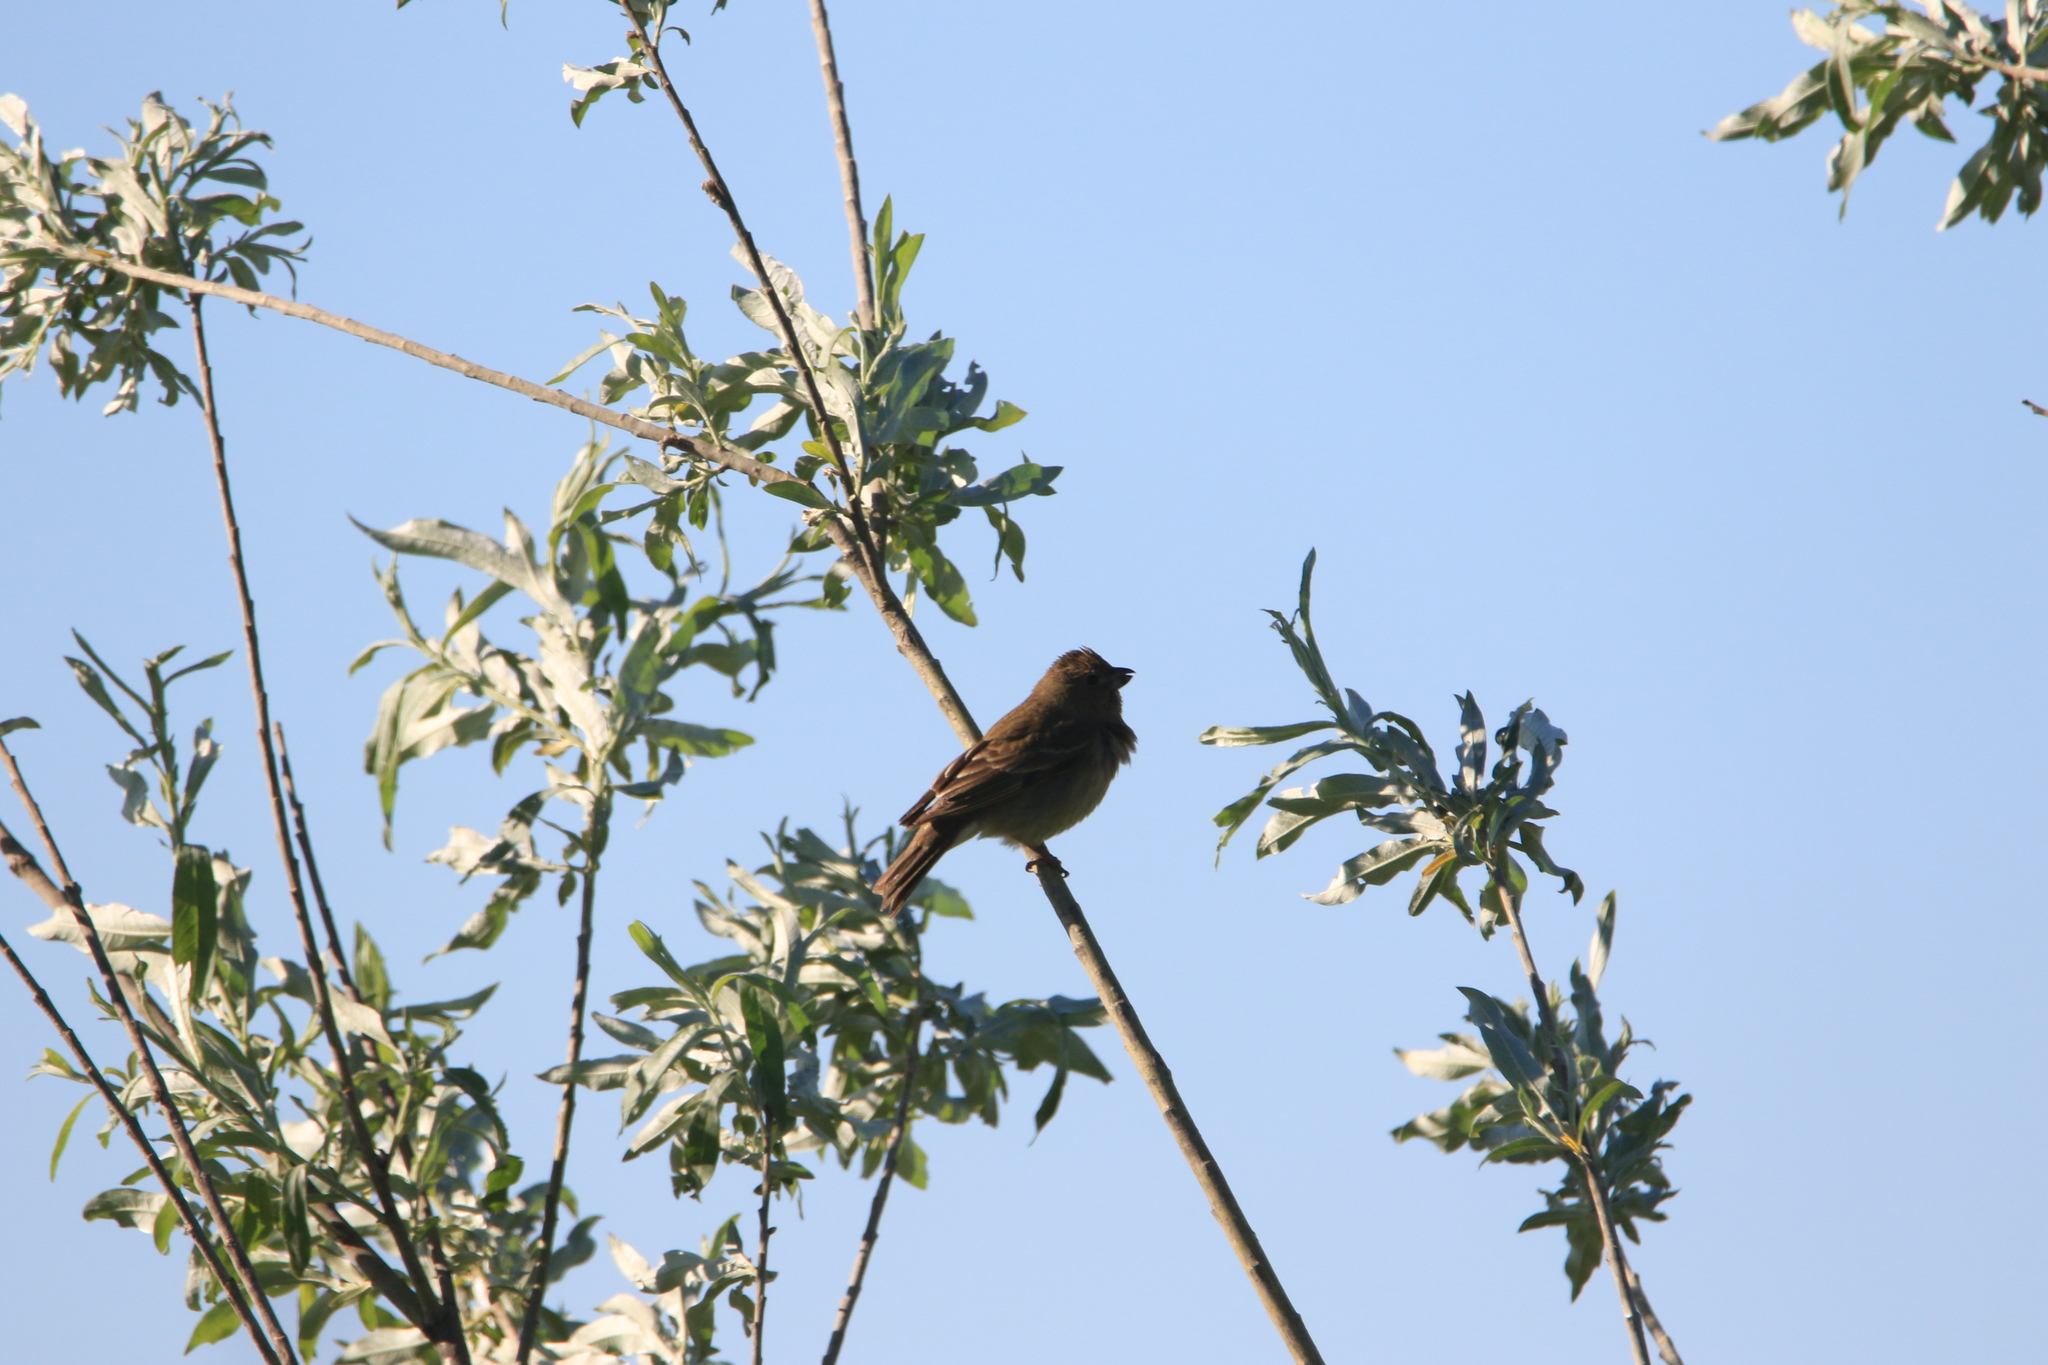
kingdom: Animalia
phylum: Chordata
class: Aves
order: Passeriformes
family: Fringillidae
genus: Carpodacus
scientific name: Carpodacus erythrinus
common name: Common rosefinch
